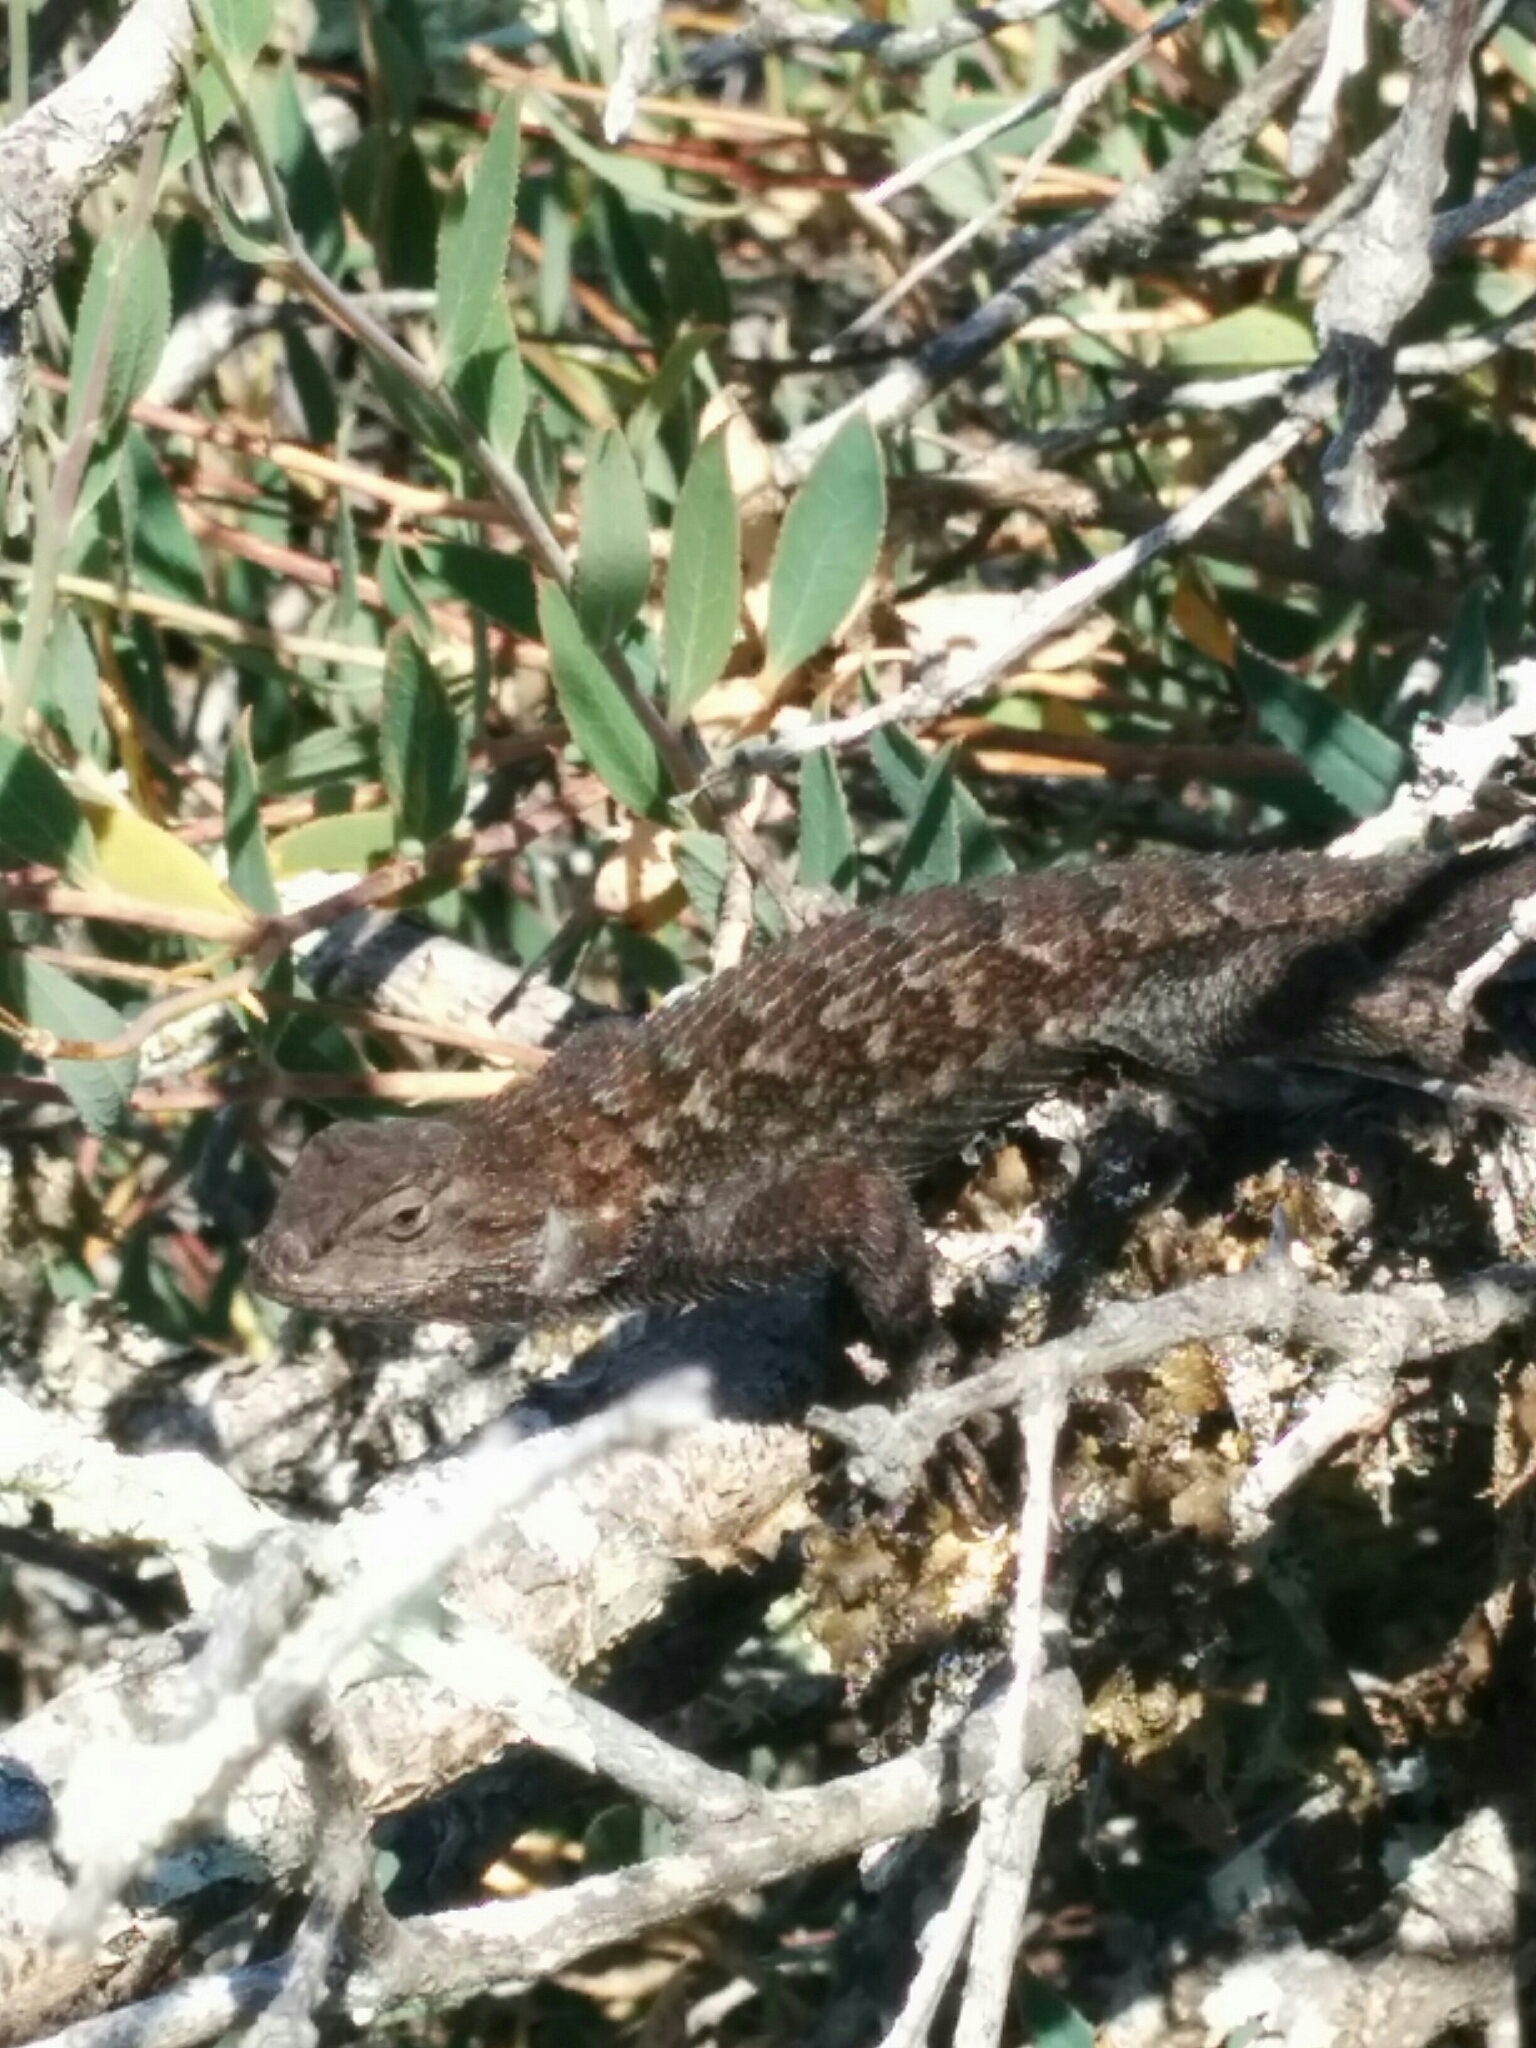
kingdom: Animalia
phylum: Chordata
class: Squamata
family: Phrynosomatidae
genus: Sceloporus
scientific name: Sceloporus occidentalis
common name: Western fence lizard
